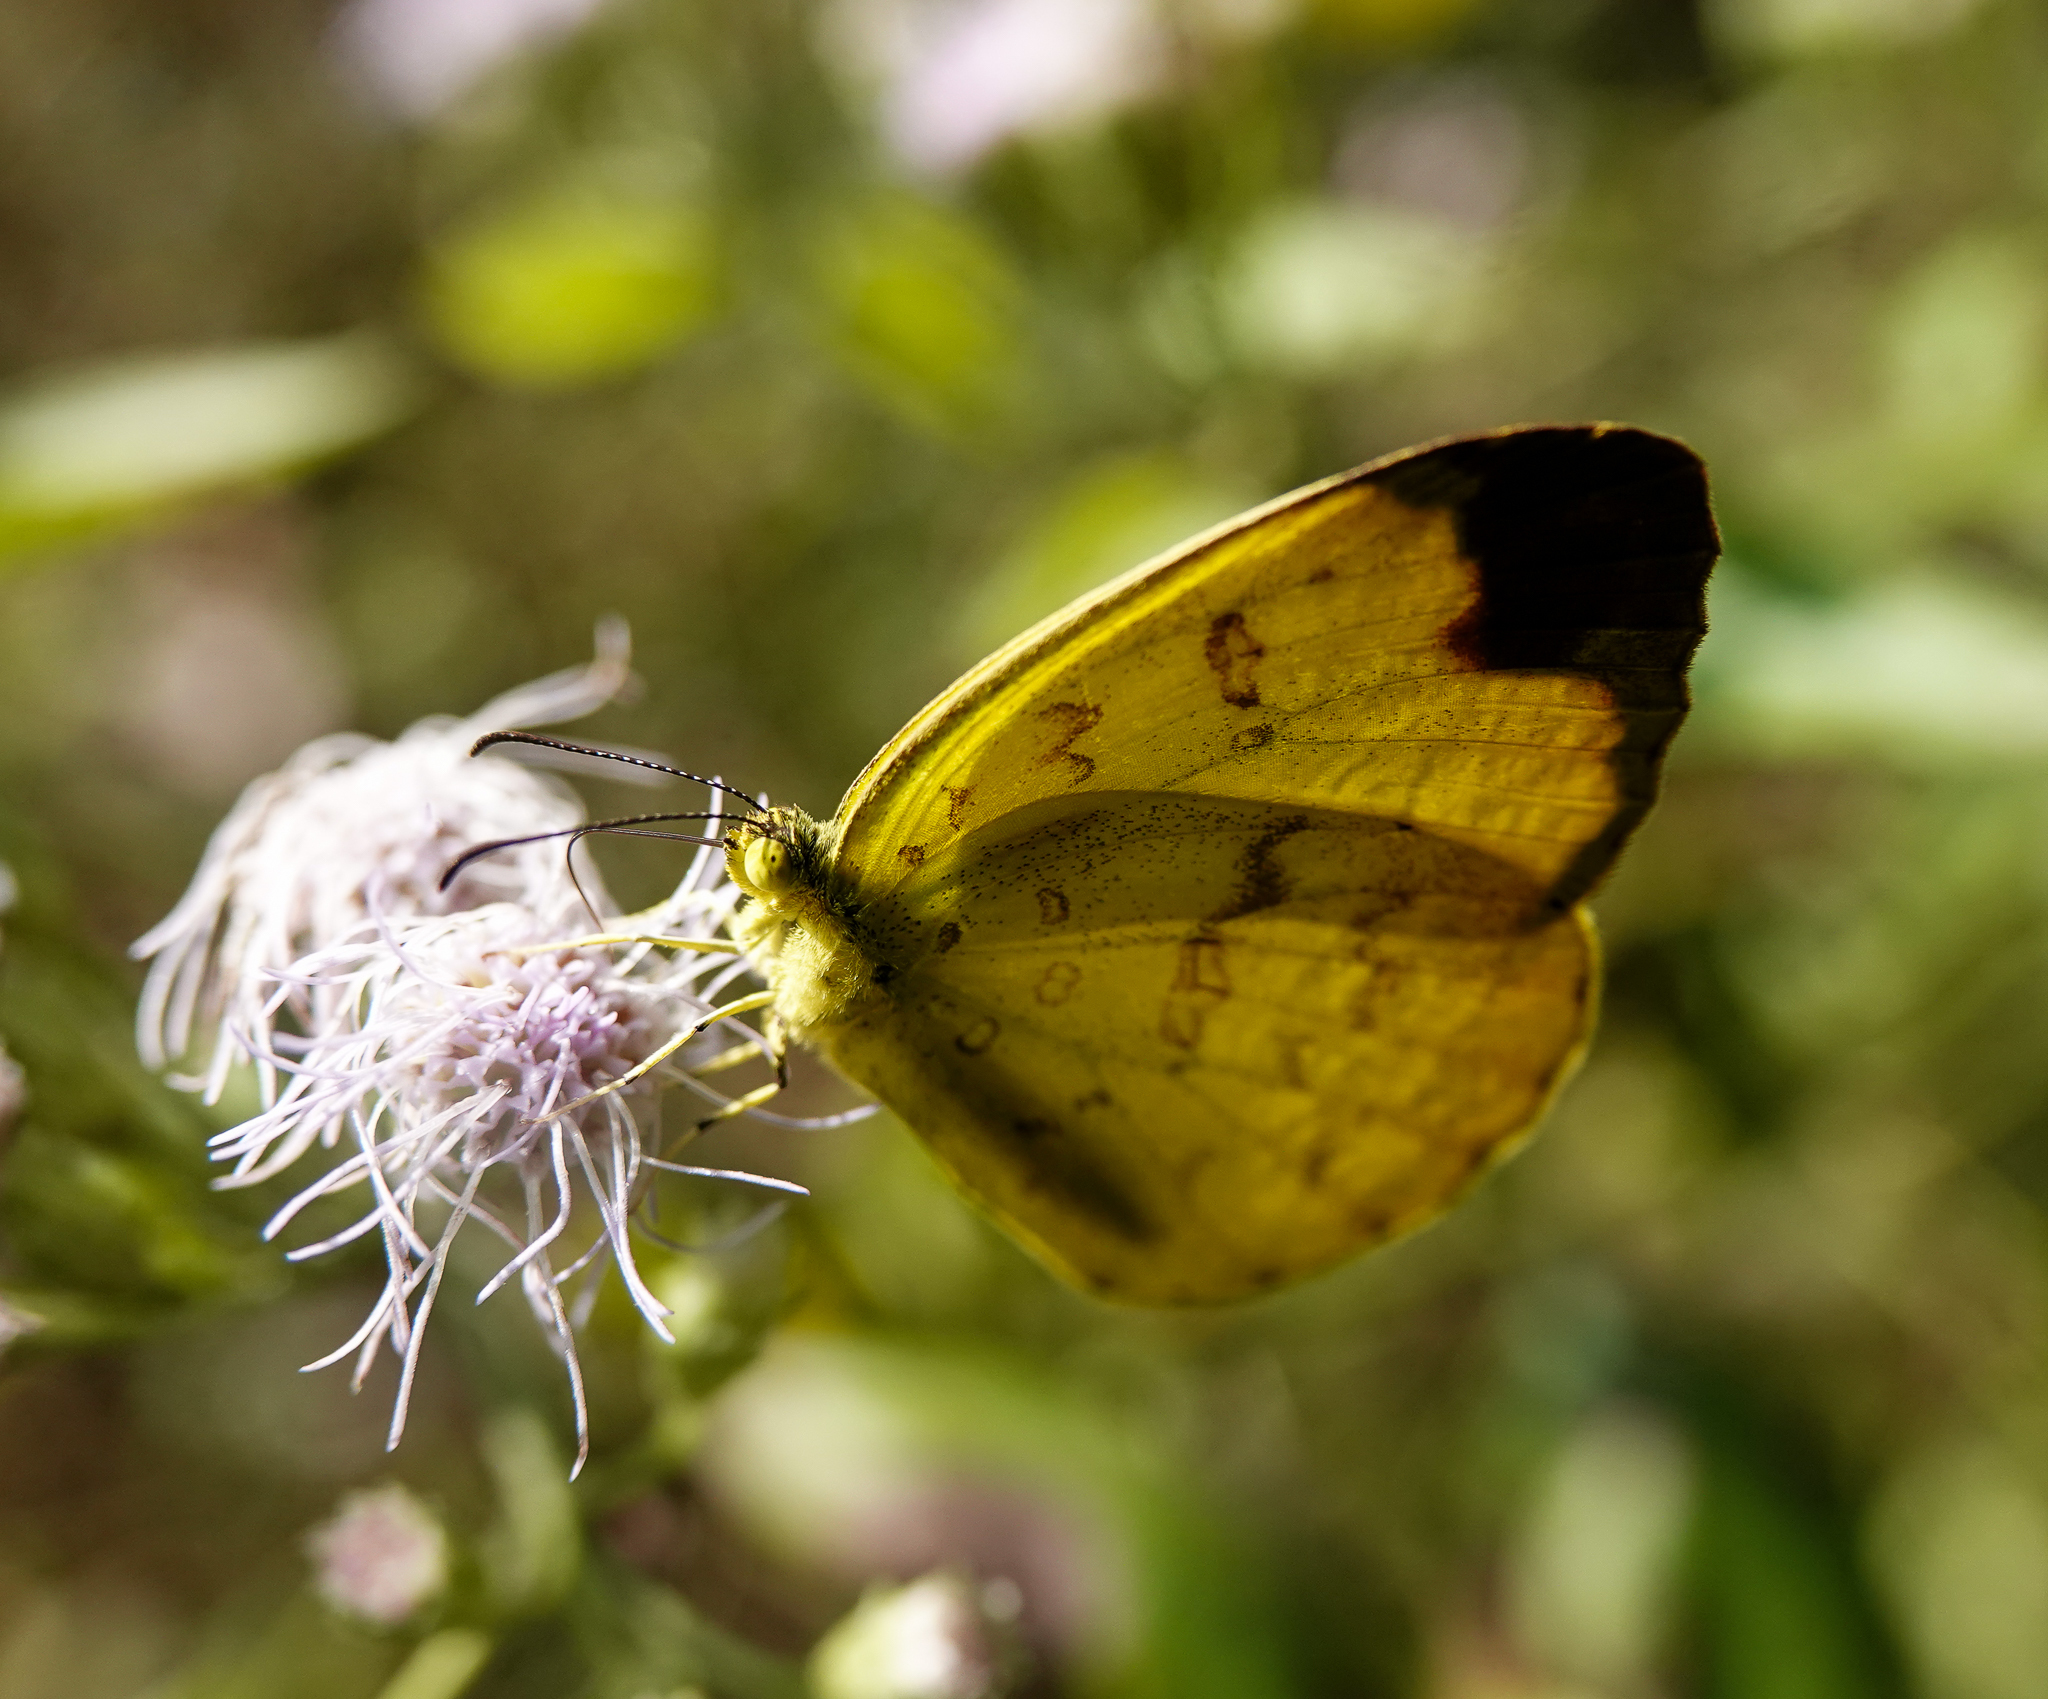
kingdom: Animalia
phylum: Arthropoda
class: Insecta
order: Lepidoptera
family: Pieridae
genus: Eurema
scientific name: Eurema blanda
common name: Three-spot grass yellow
